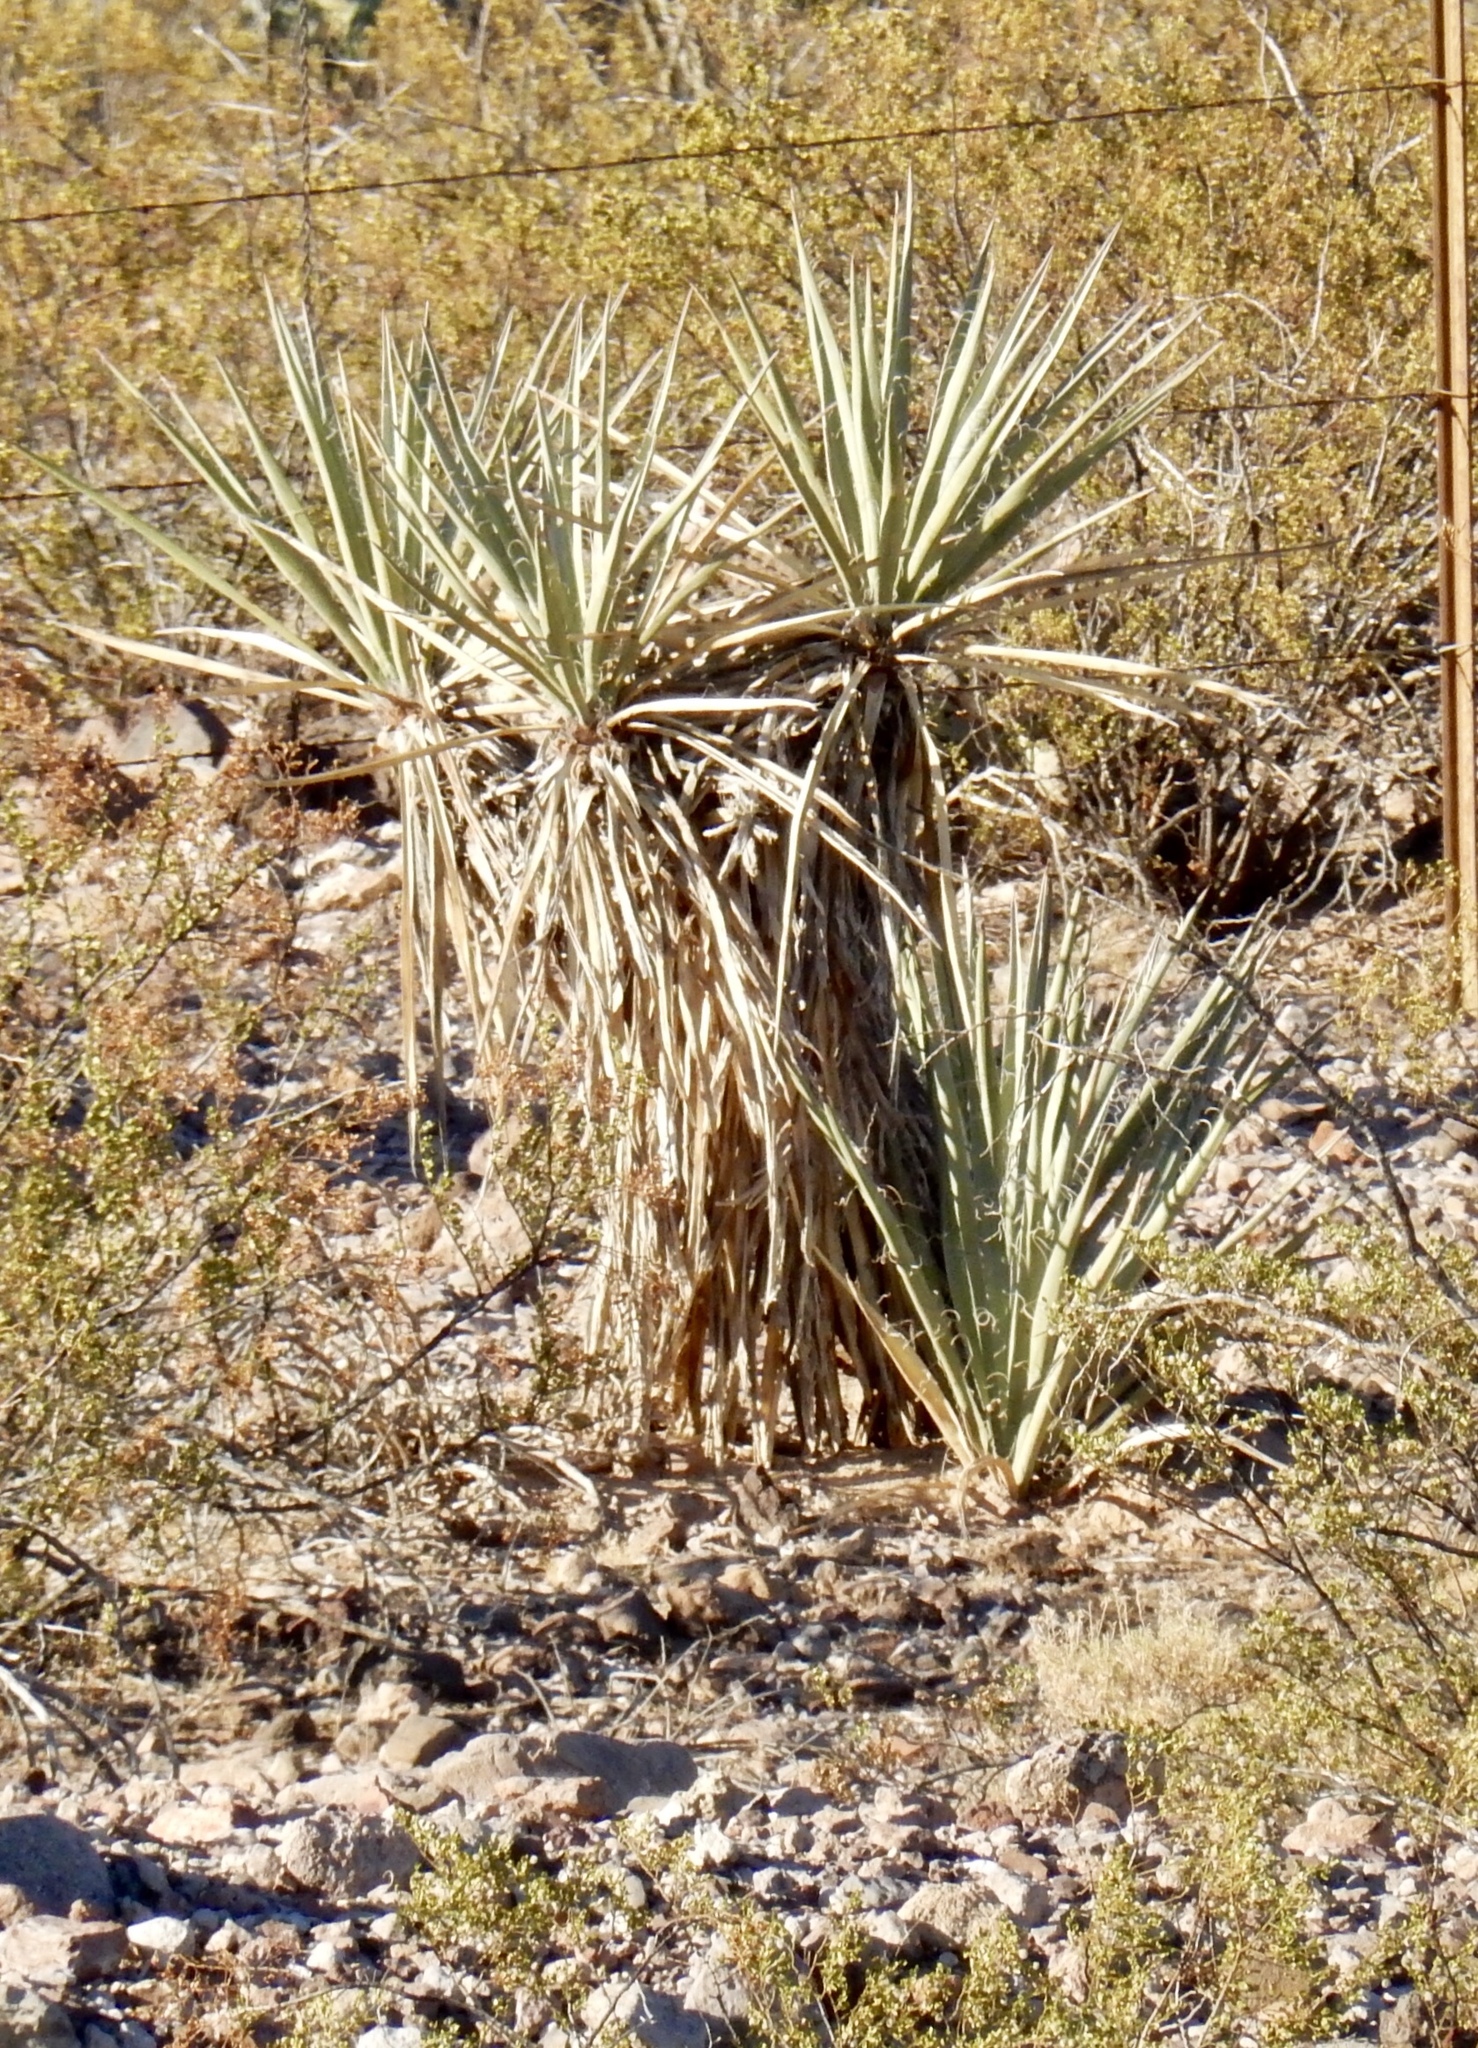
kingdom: Plantae
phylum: Tracheophyta
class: Liliopsida
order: Asparagales
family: Asparagaceae
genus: Yucca
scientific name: Yucca baccata
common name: Banana yucca
